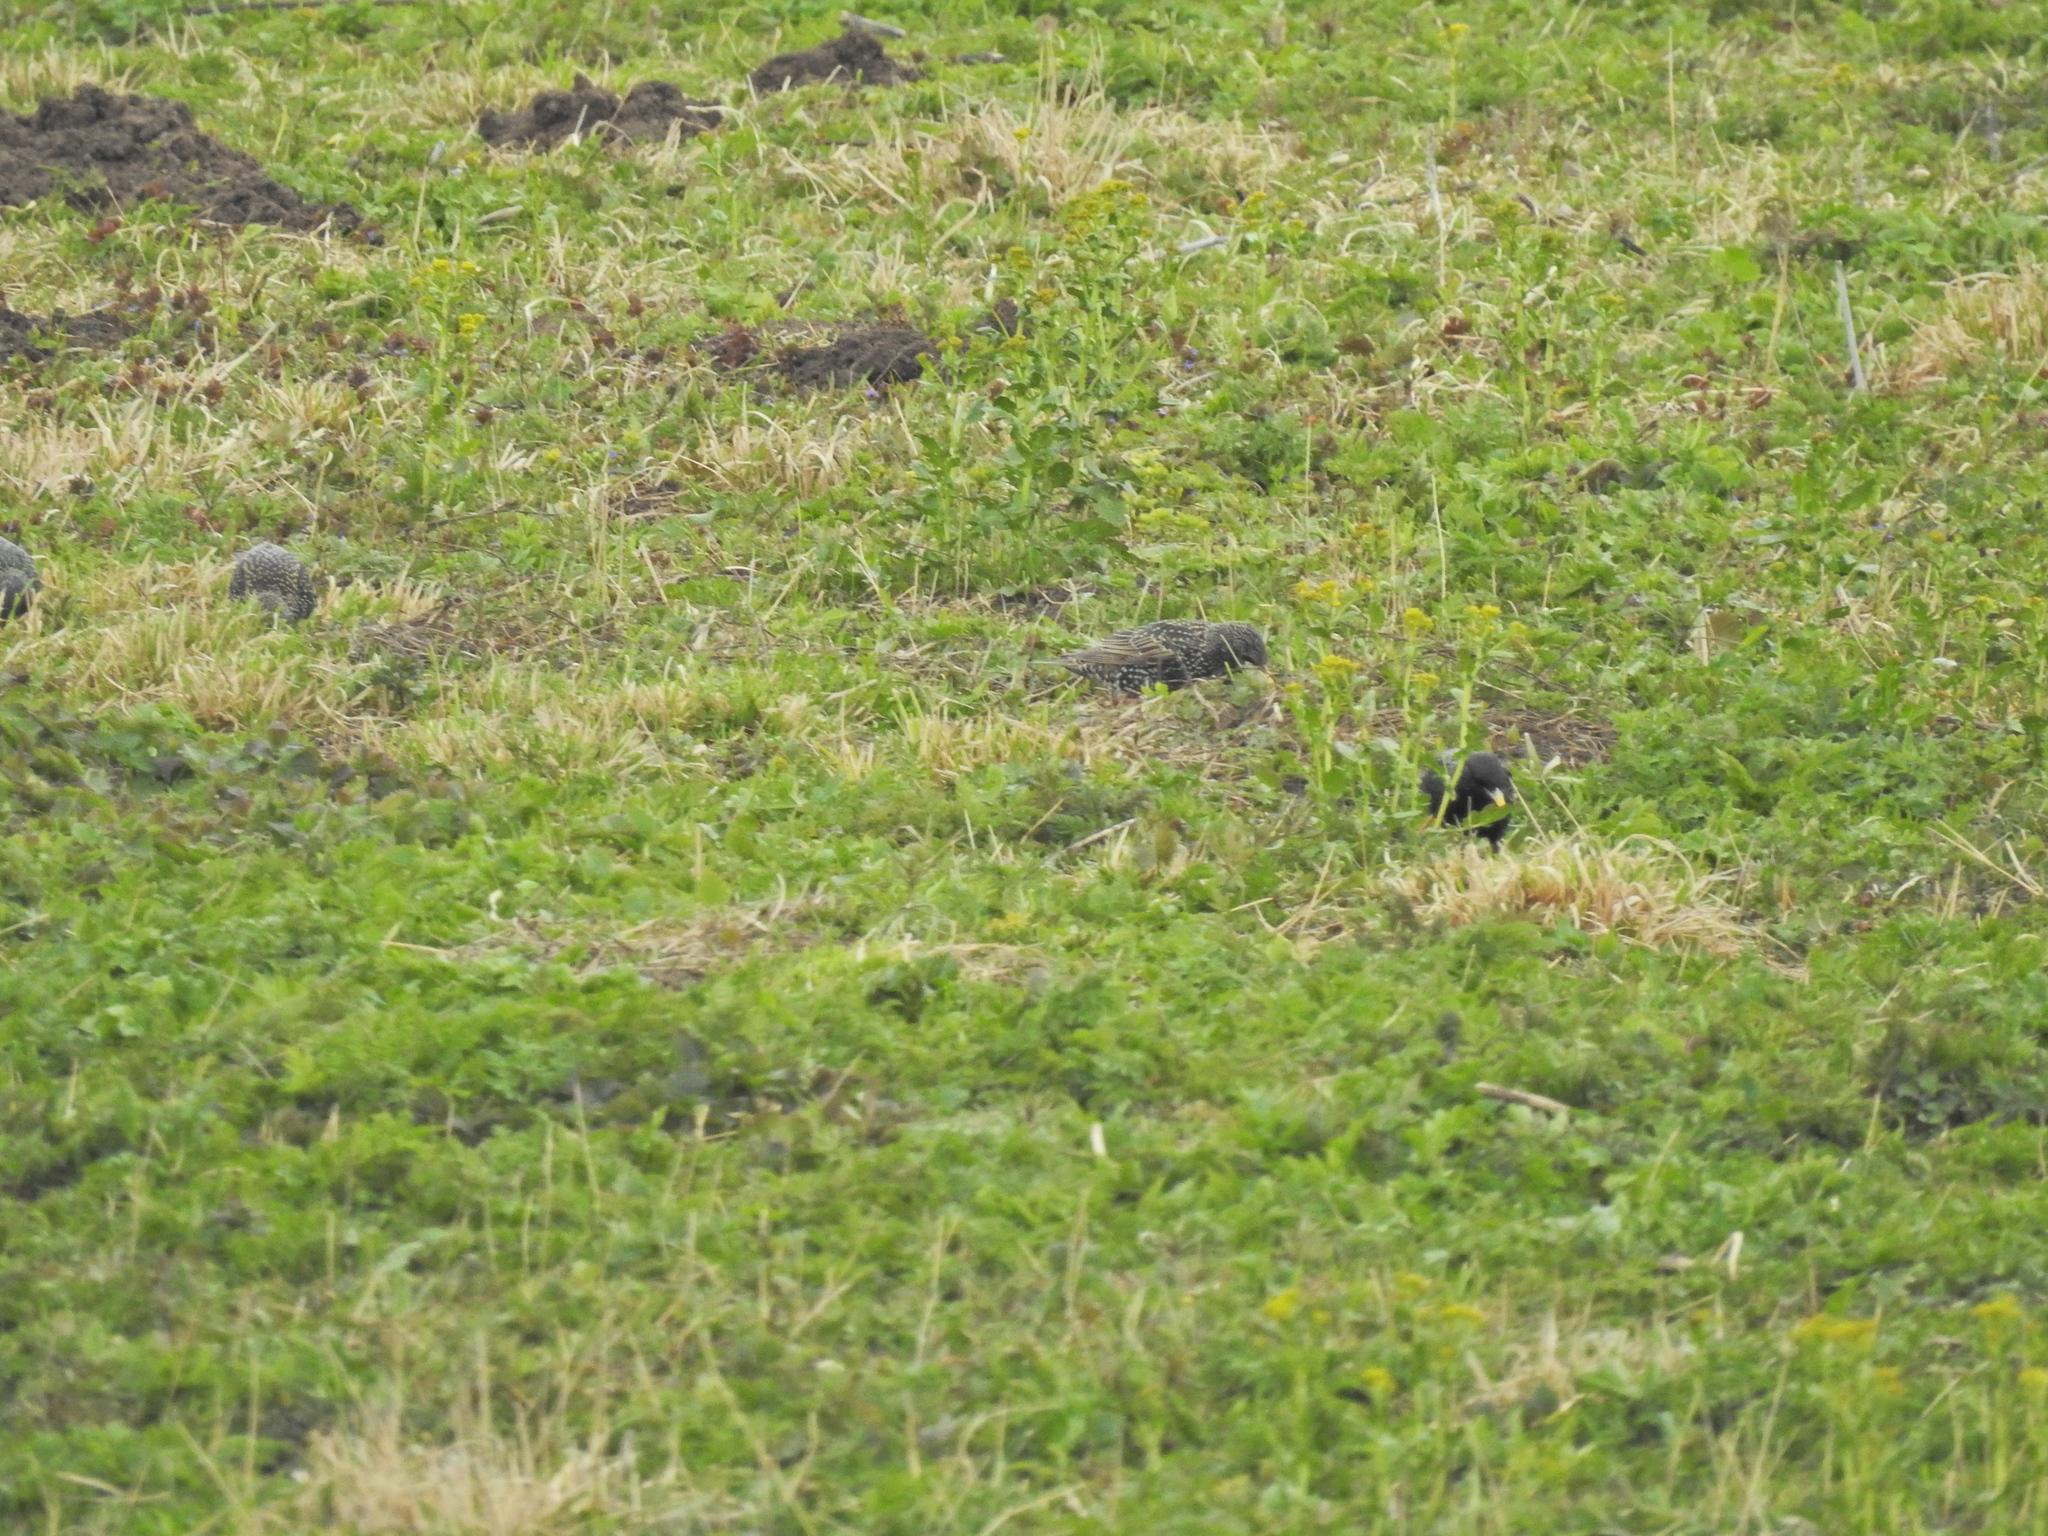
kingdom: Animalia
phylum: Chordata
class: Aves
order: Passeriformes
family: Sturnidae
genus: Sturnus
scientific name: Sturnus vulgaris
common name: Common starling
